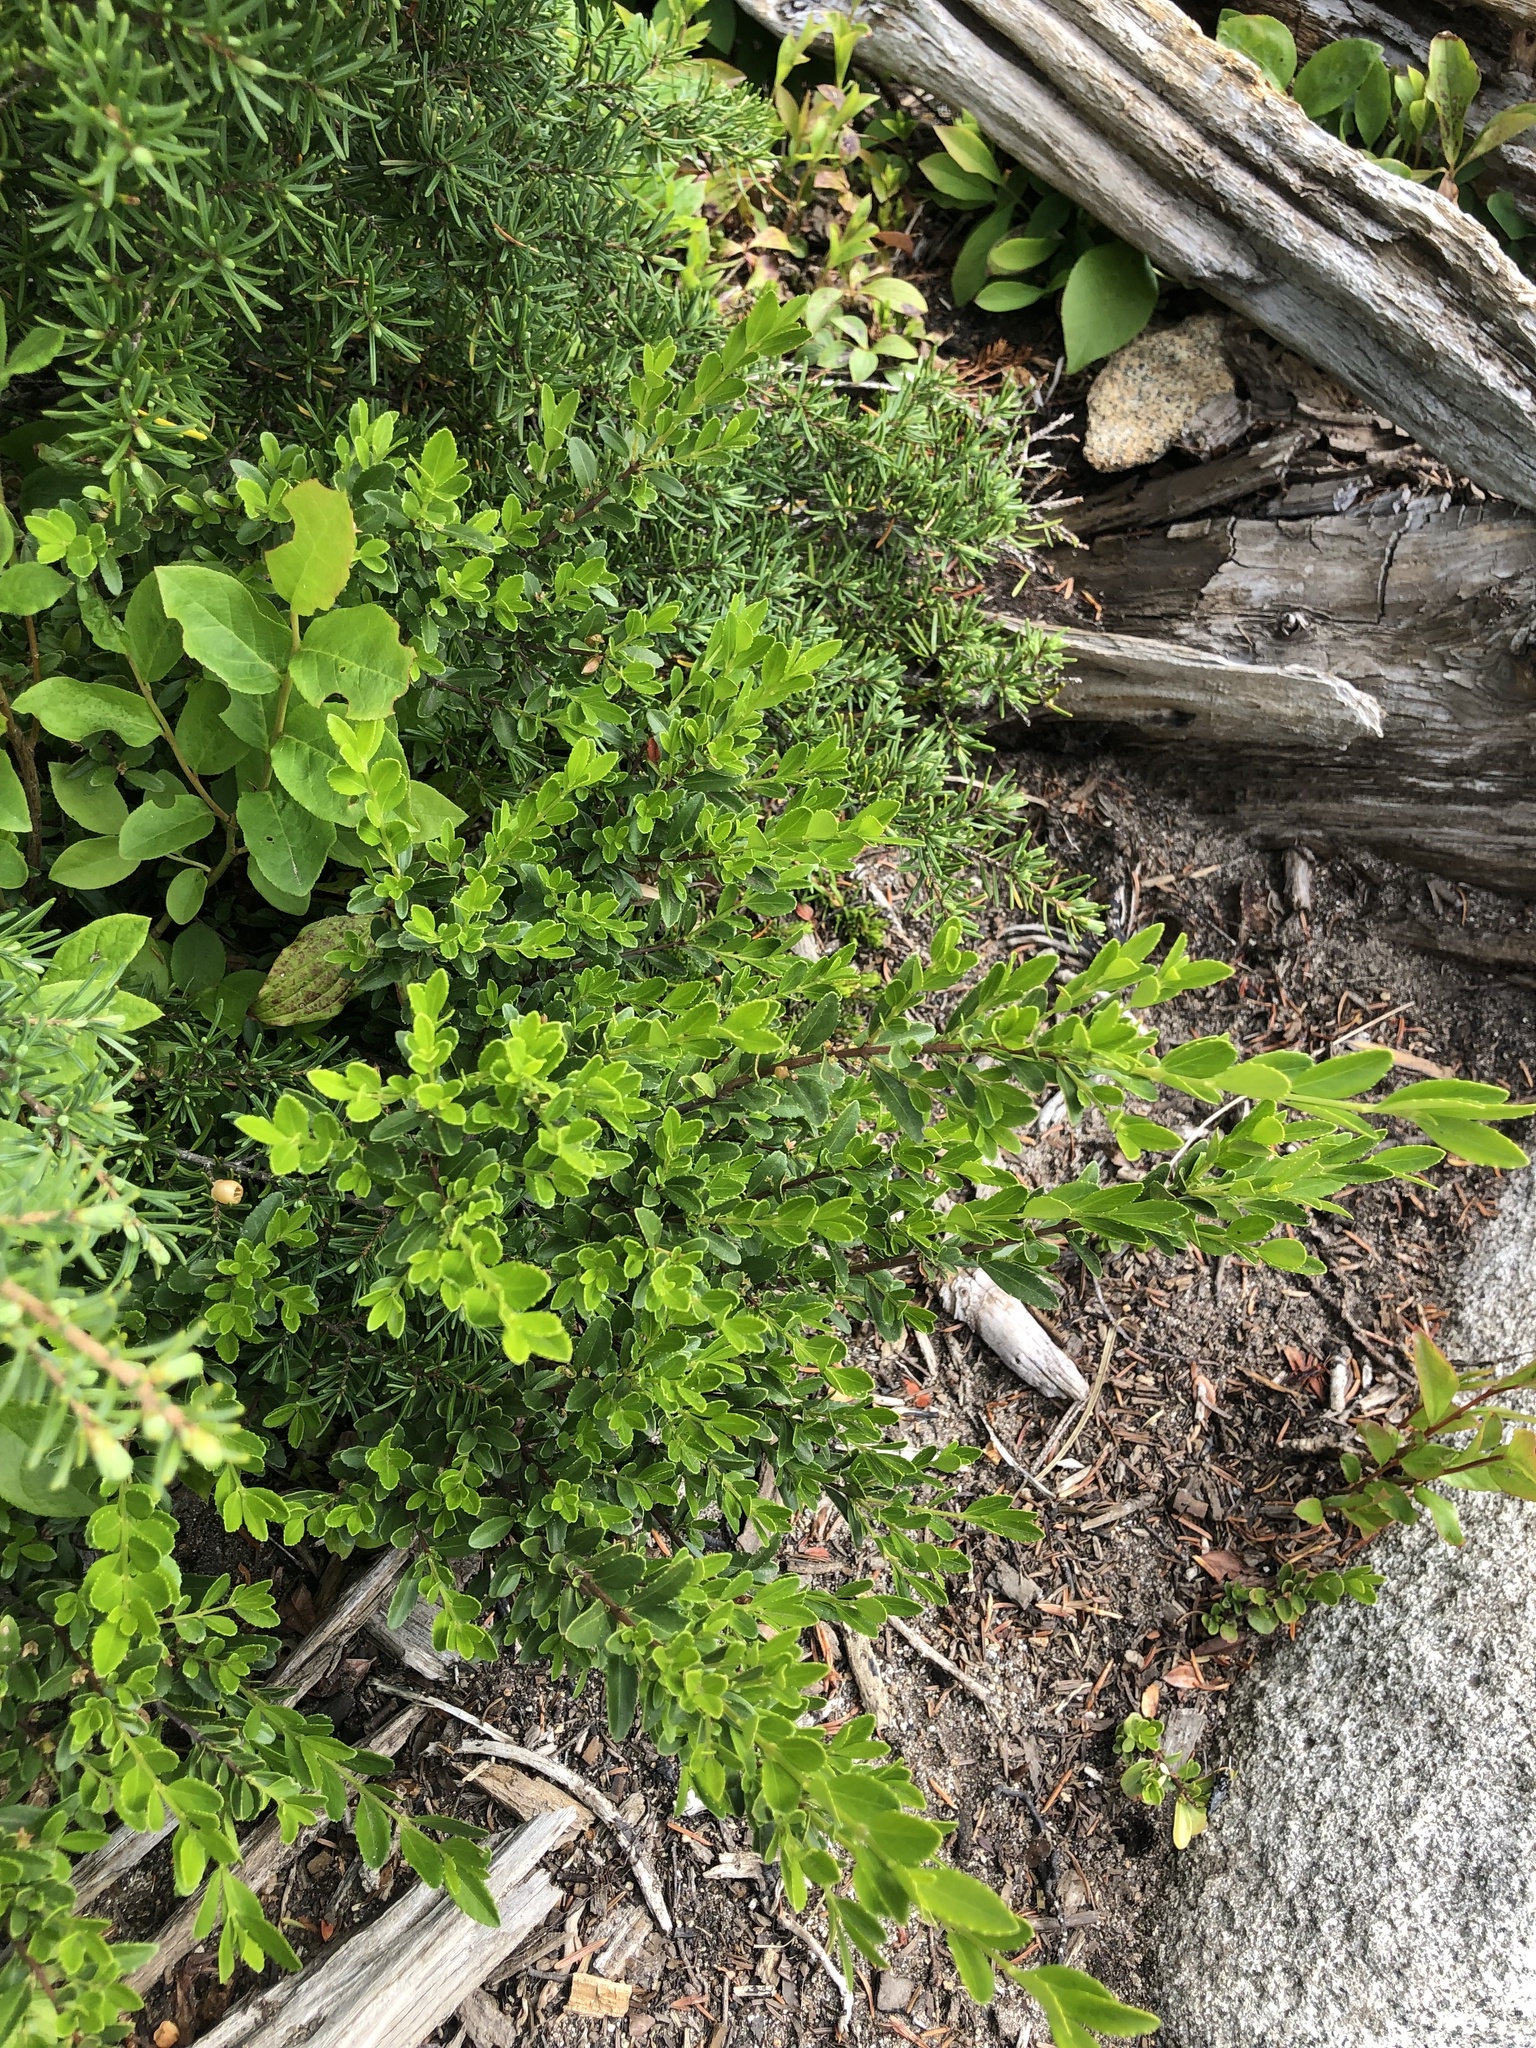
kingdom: Plantae
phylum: Tracheophyta
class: Magnoliopsida
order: Celastrales
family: Celastraceae
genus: Paxistima
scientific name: Paxistima myrsinites
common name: Mountain-lover
